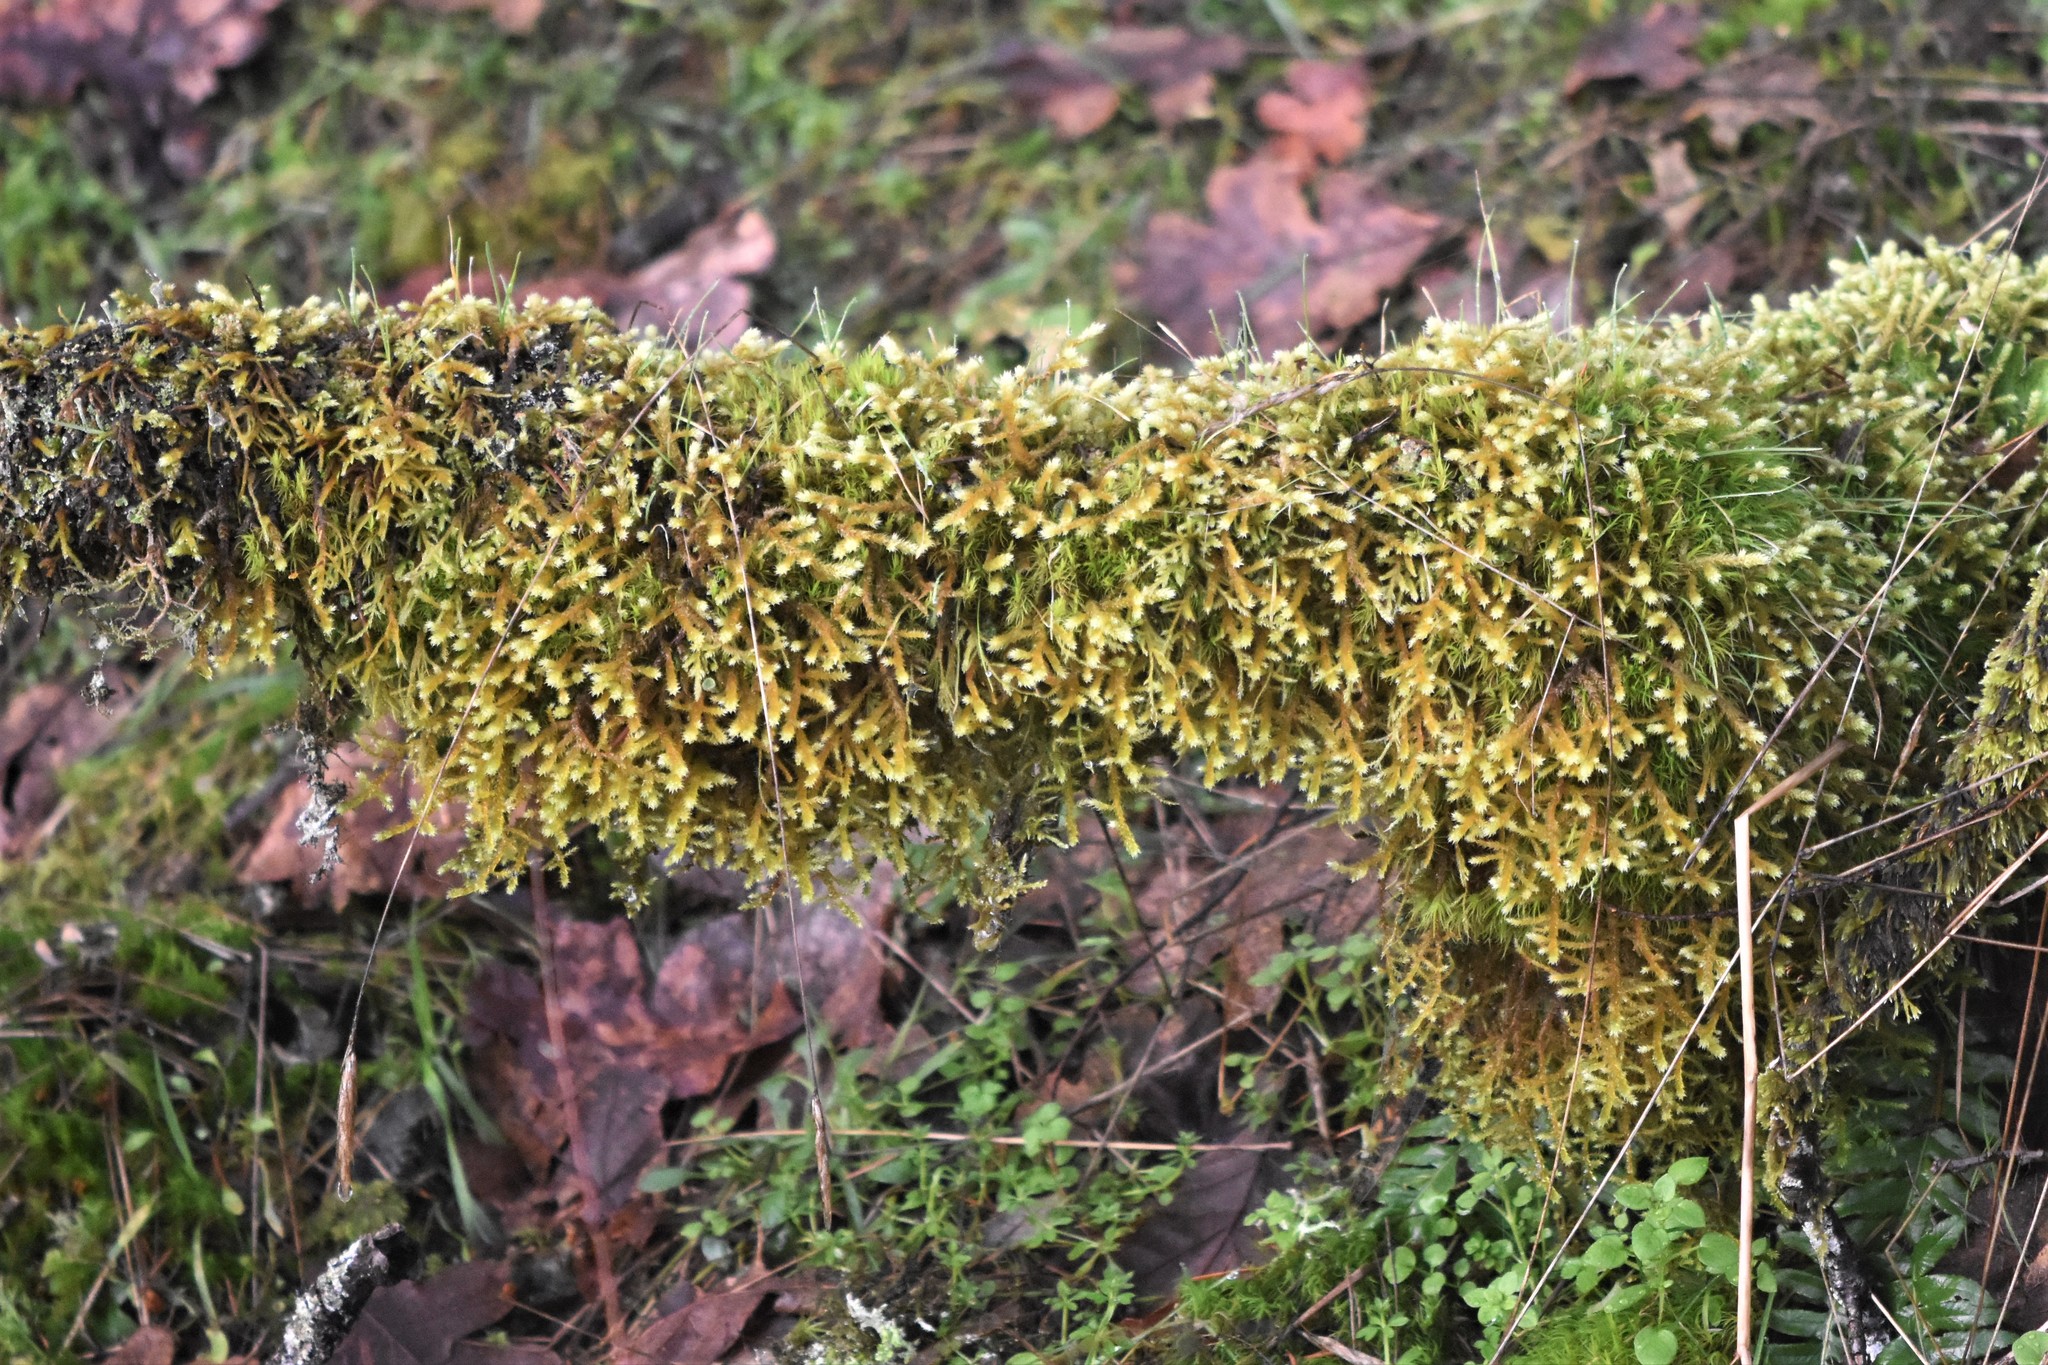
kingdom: Plantae
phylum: Bryophyta
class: Bryopsida
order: Hypnales
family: Antitrichiaceae
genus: Antitrichia
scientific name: Antitrichia curtipendula
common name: Pendulous wing-moss
